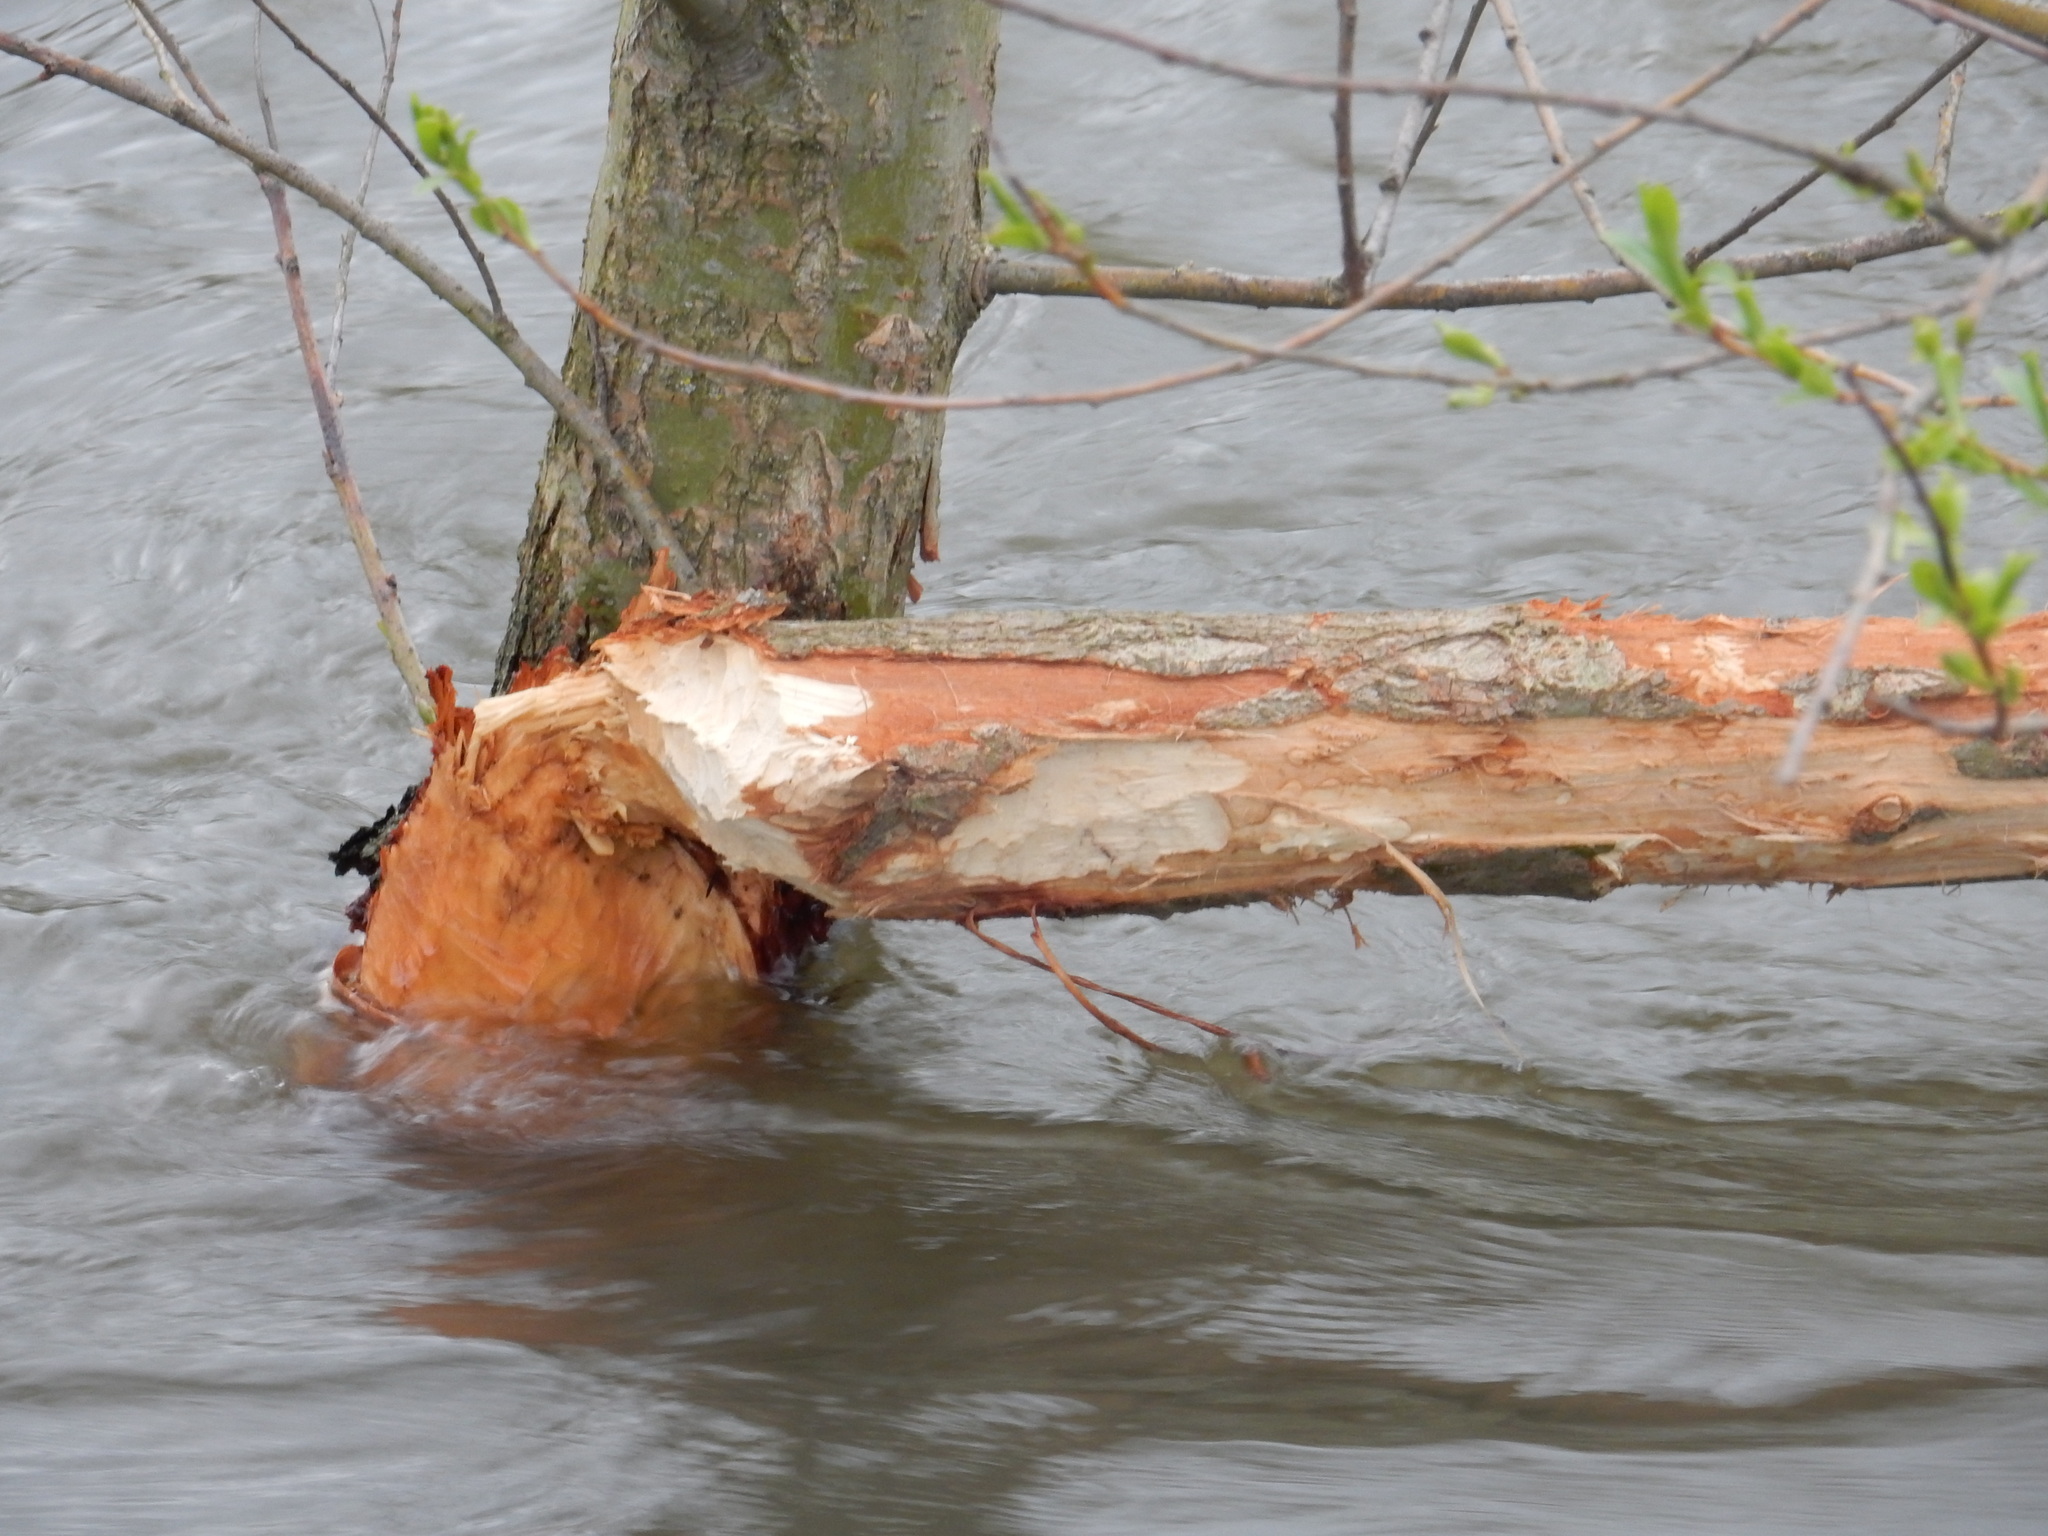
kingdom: Animalia
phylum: Chordata
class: Mammalia
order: Rodentia
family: Castoridae
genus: Castor
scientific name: Castor fiber
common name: Eurasian beaver
